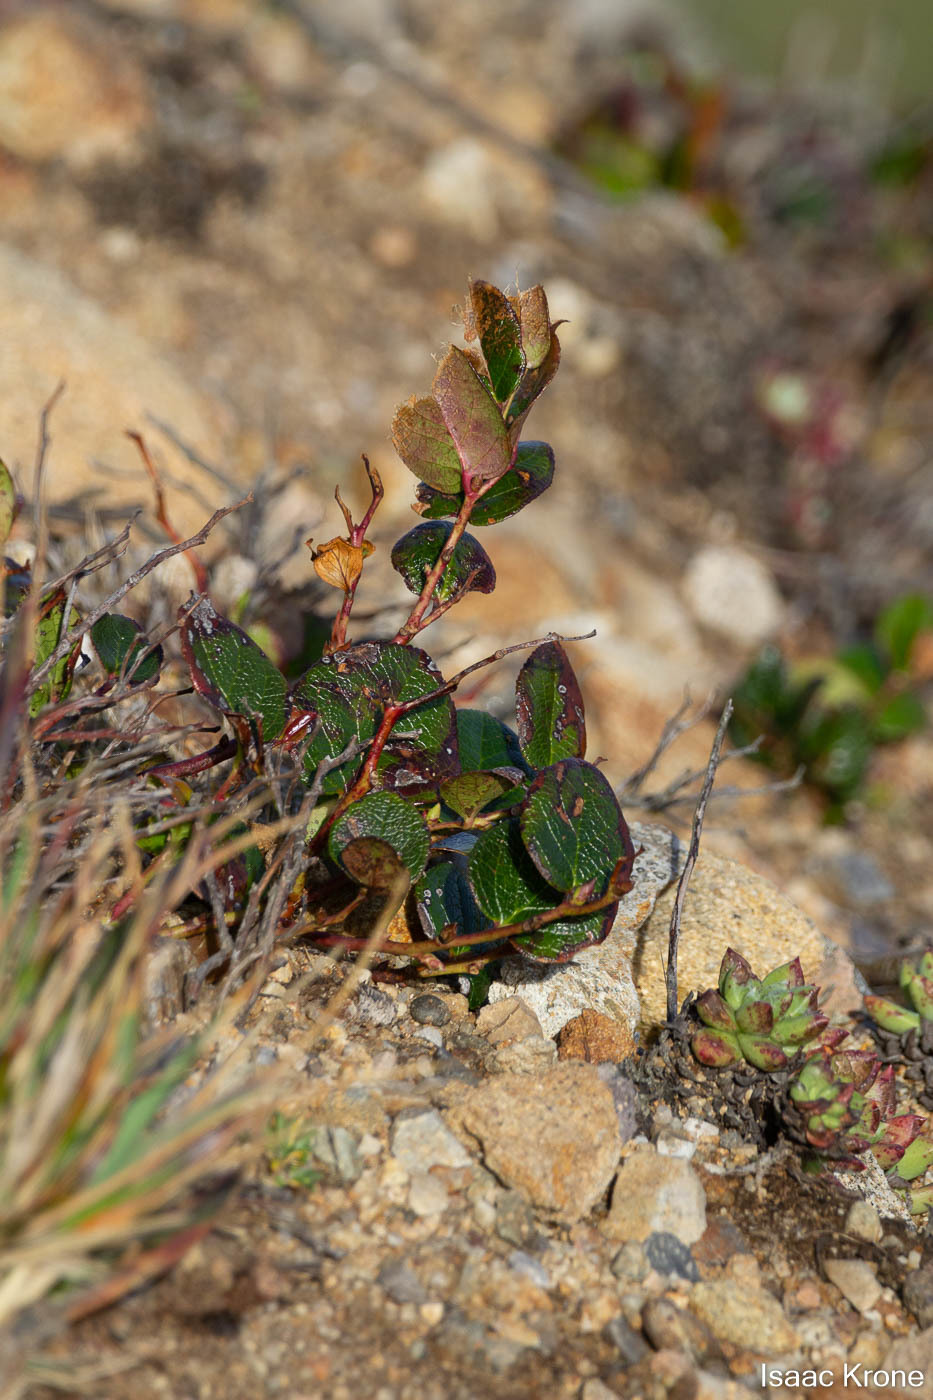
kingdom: Plantae
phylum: Tracheophyta
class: Magnoliopsida
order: Ericales
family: Ericaceae
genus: Gaultheria
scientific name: Gaultheria shallon
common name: Shallon
